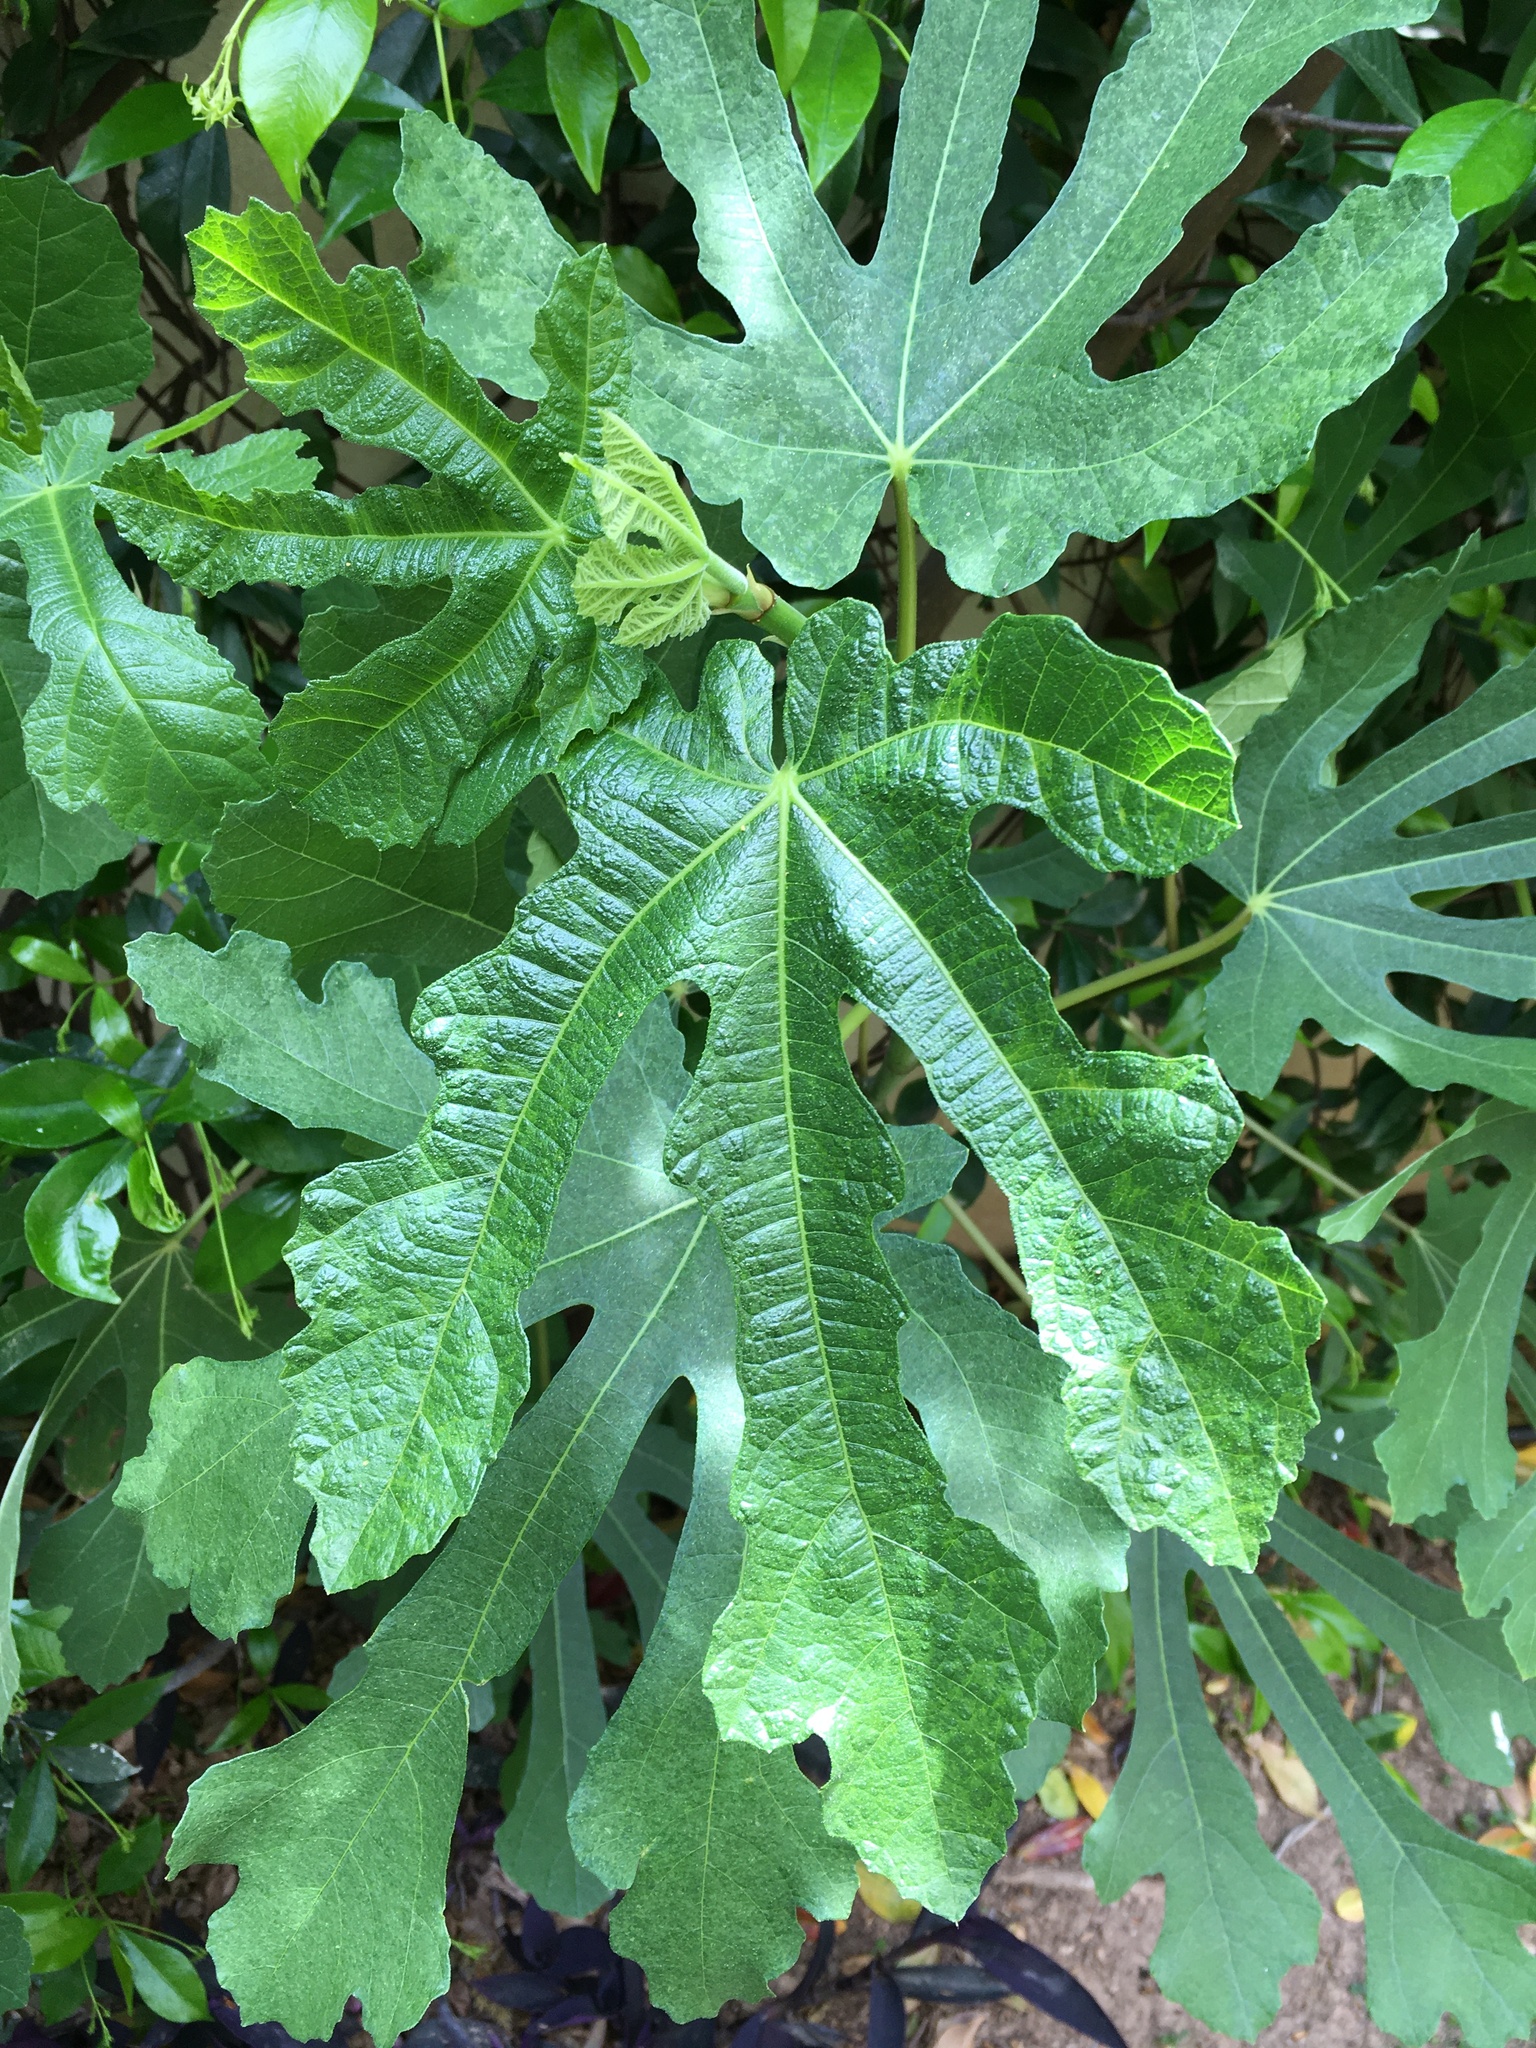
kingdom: Plantae
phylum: Tracheophyta
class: Magnoliopsida
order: Rosales
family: Moraceae
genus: Ficus
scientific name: Ficus carica
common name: Fig
